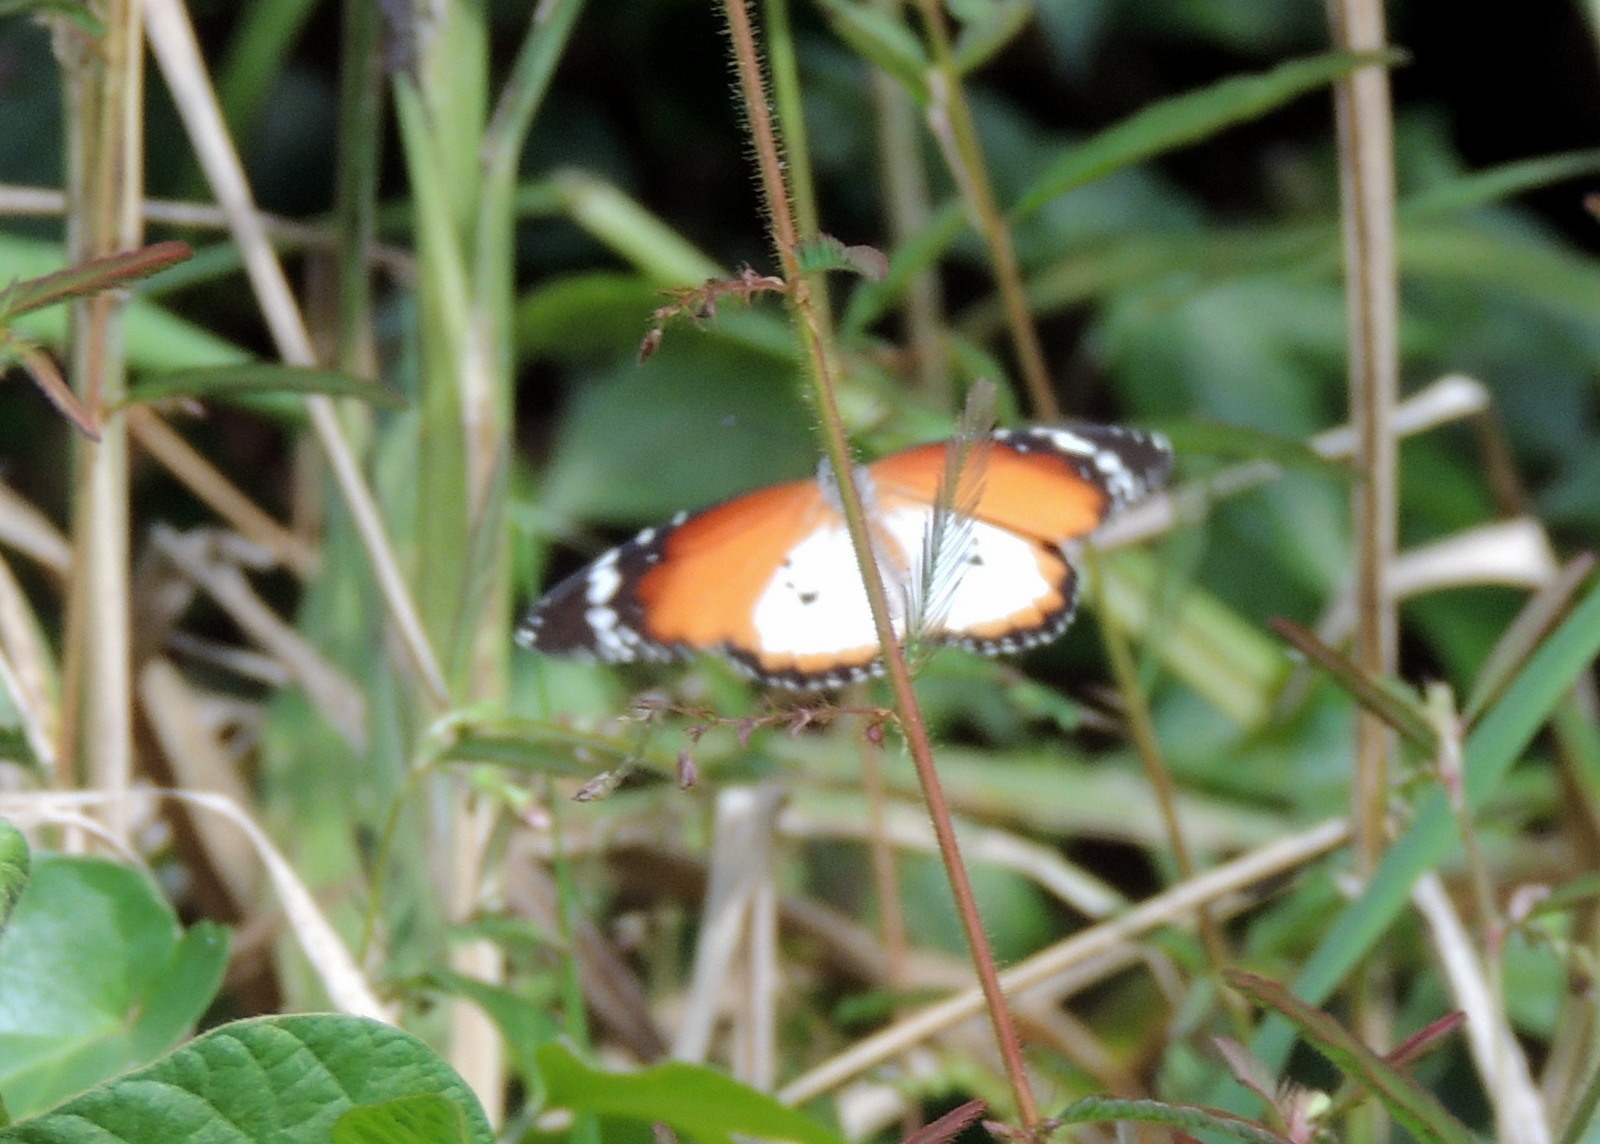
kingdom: Animalia
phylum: Arthropoda
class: Insecta
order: Lepidoptera
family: Nymphalidae
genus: Danaus
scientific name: Danaus chrysippus
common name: Plain tiger
